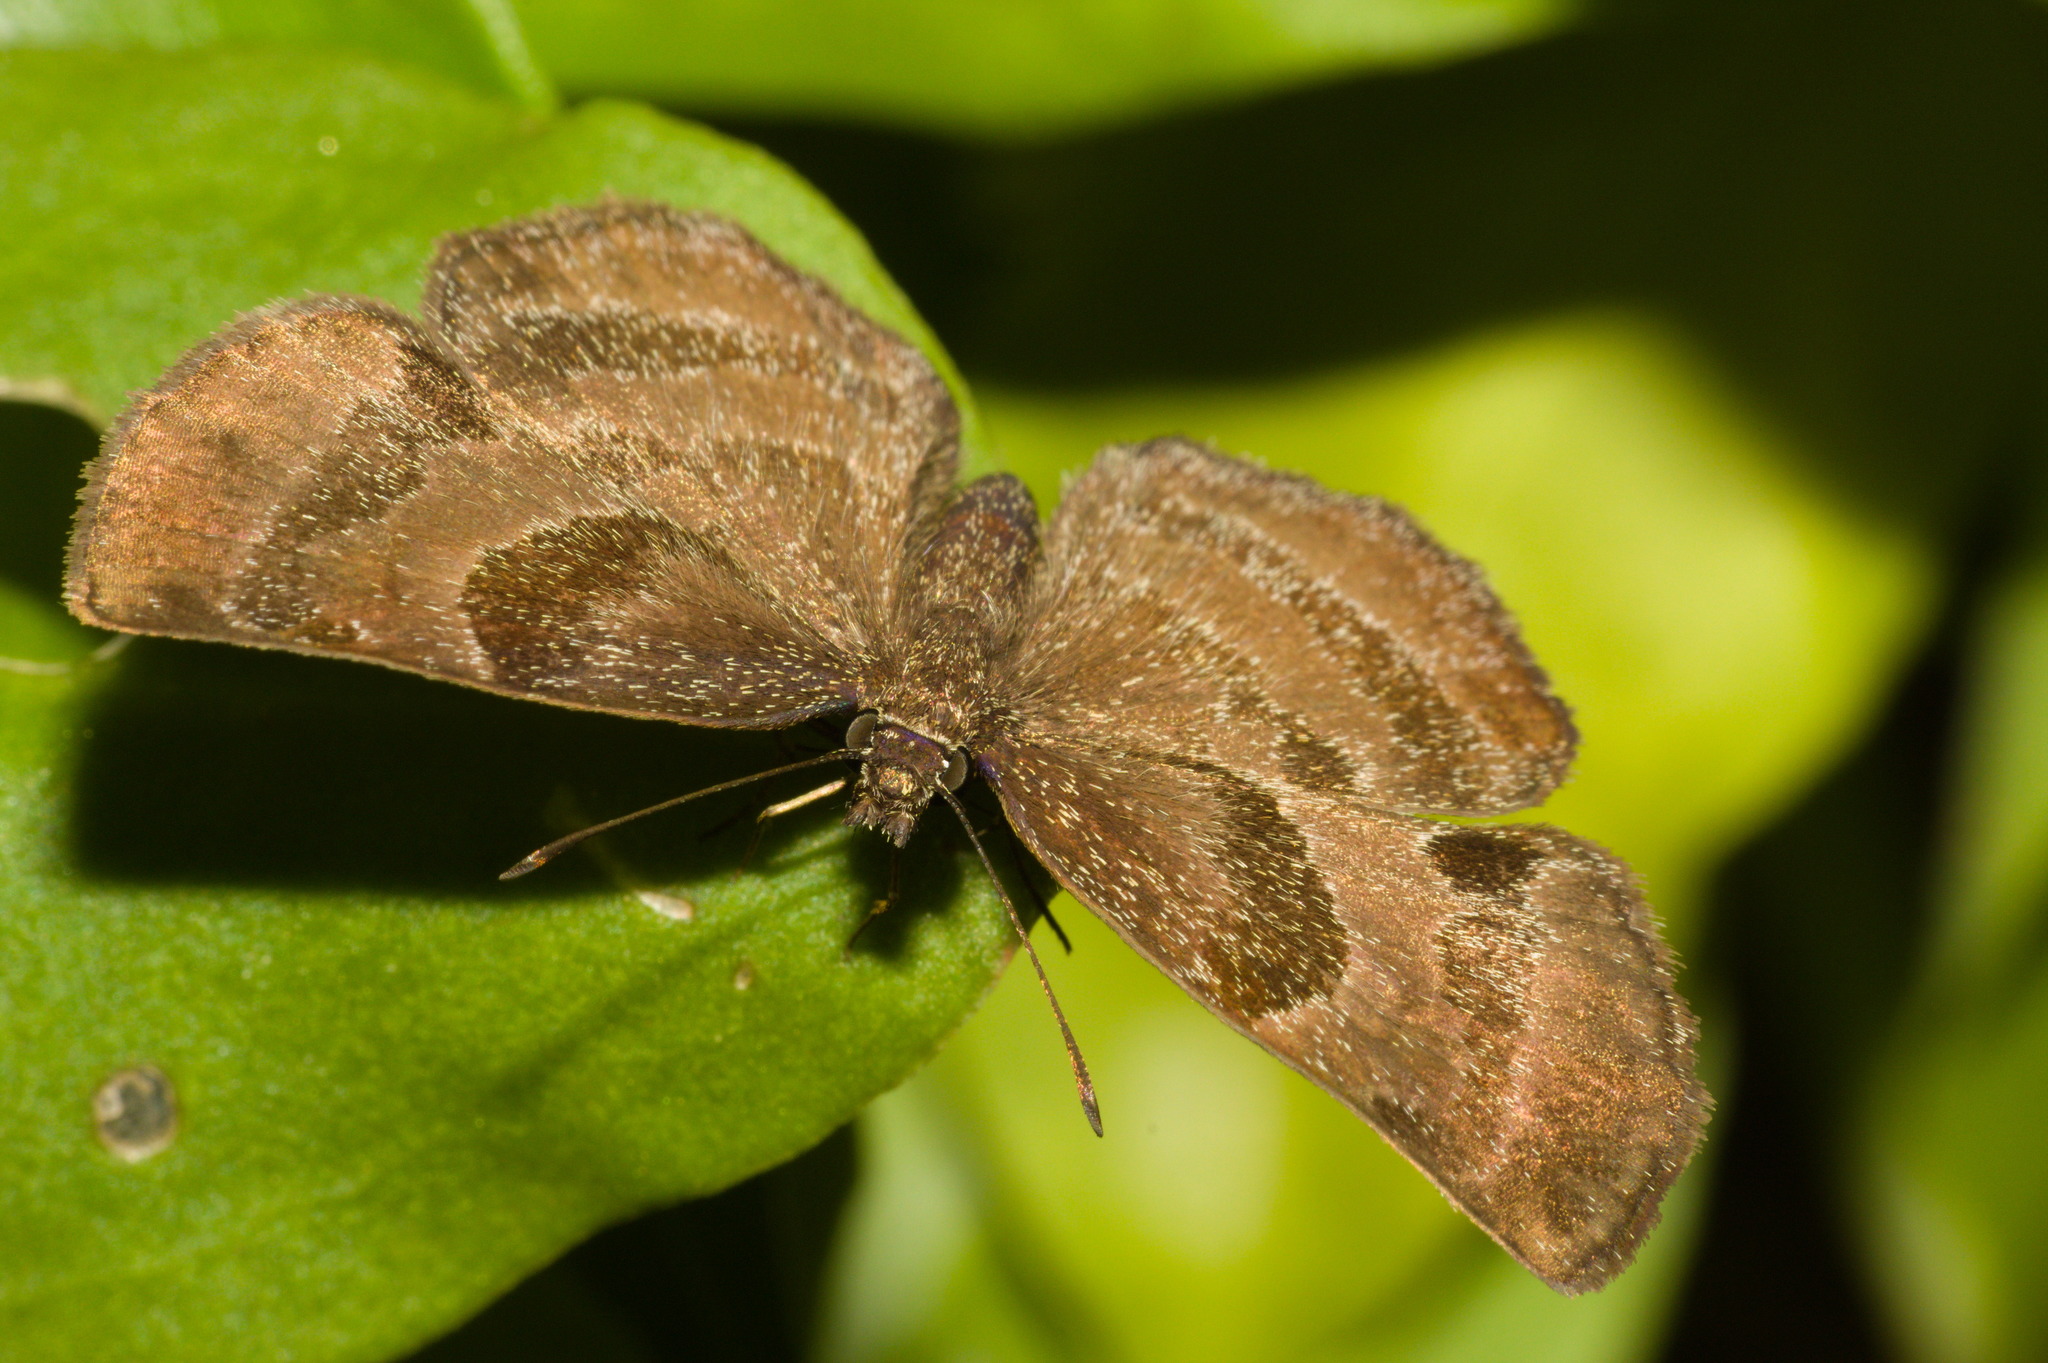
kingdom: Animalia
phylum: Arthropoda
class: Insecta
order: Lepidoptera
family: Hesperiidae
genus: Trina
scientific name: Trina geometrina
